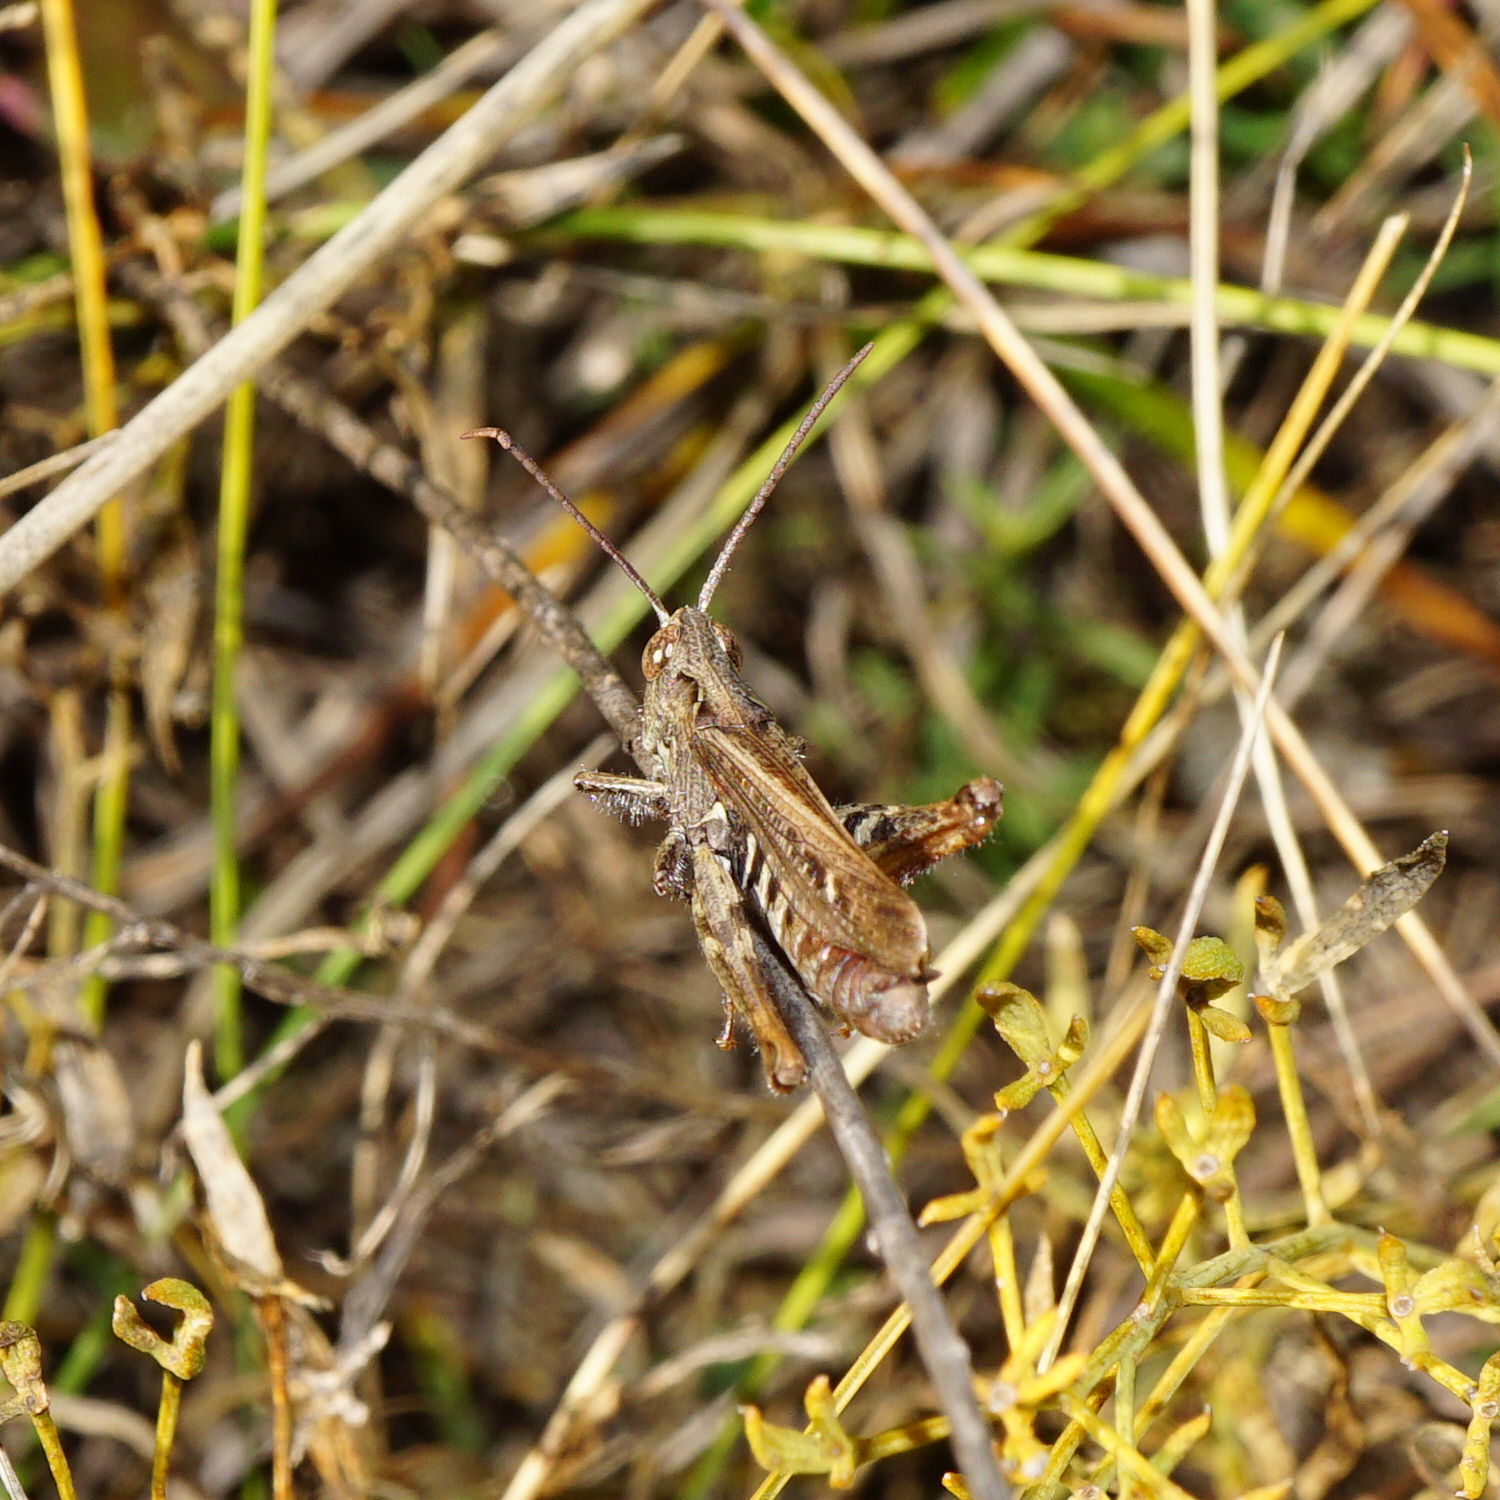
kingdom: Animalia
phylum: Arthropoda
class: Insecta
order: Orthoptera
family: Acrididae
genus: Chorthippus
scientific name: Chorthippus brunneus
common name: Field grasshopper
